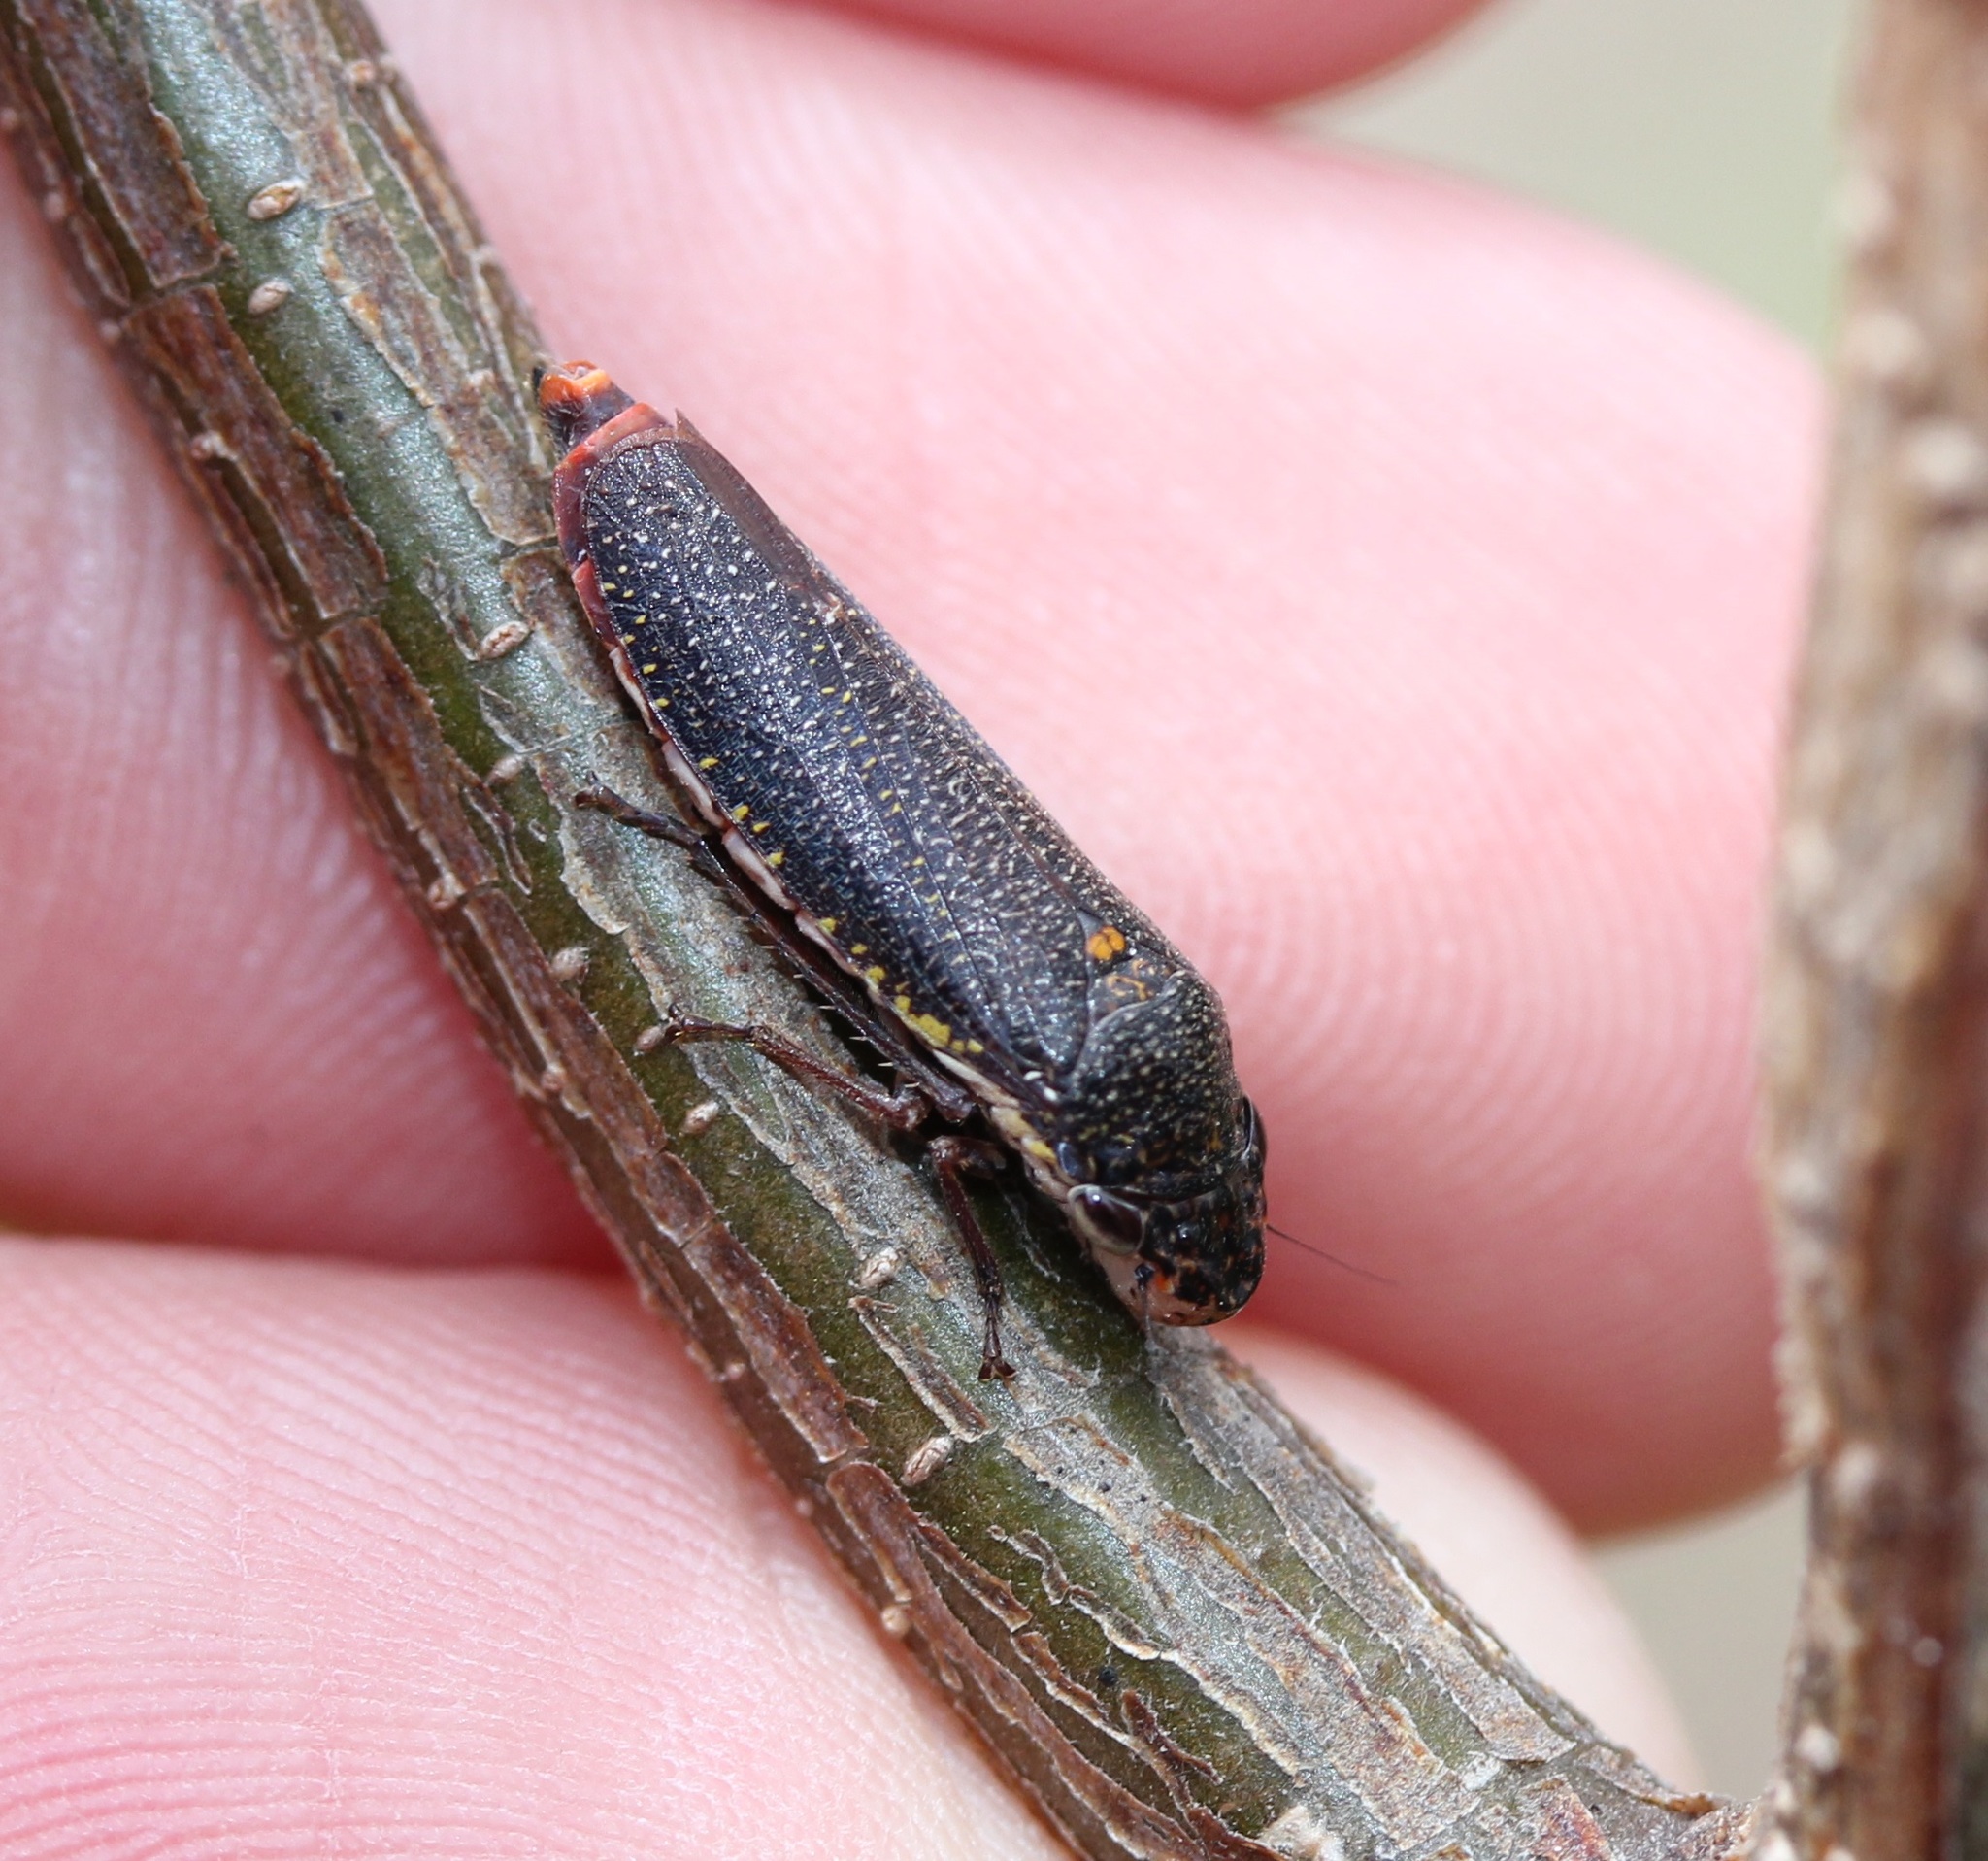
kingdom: Animalia
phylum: Arthropoda
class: Insecta
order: Hemiptera
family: Cicadellidae
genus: Paraulacizes
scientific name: Paraulacizes irrorata
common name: Speckled sharpshooter
